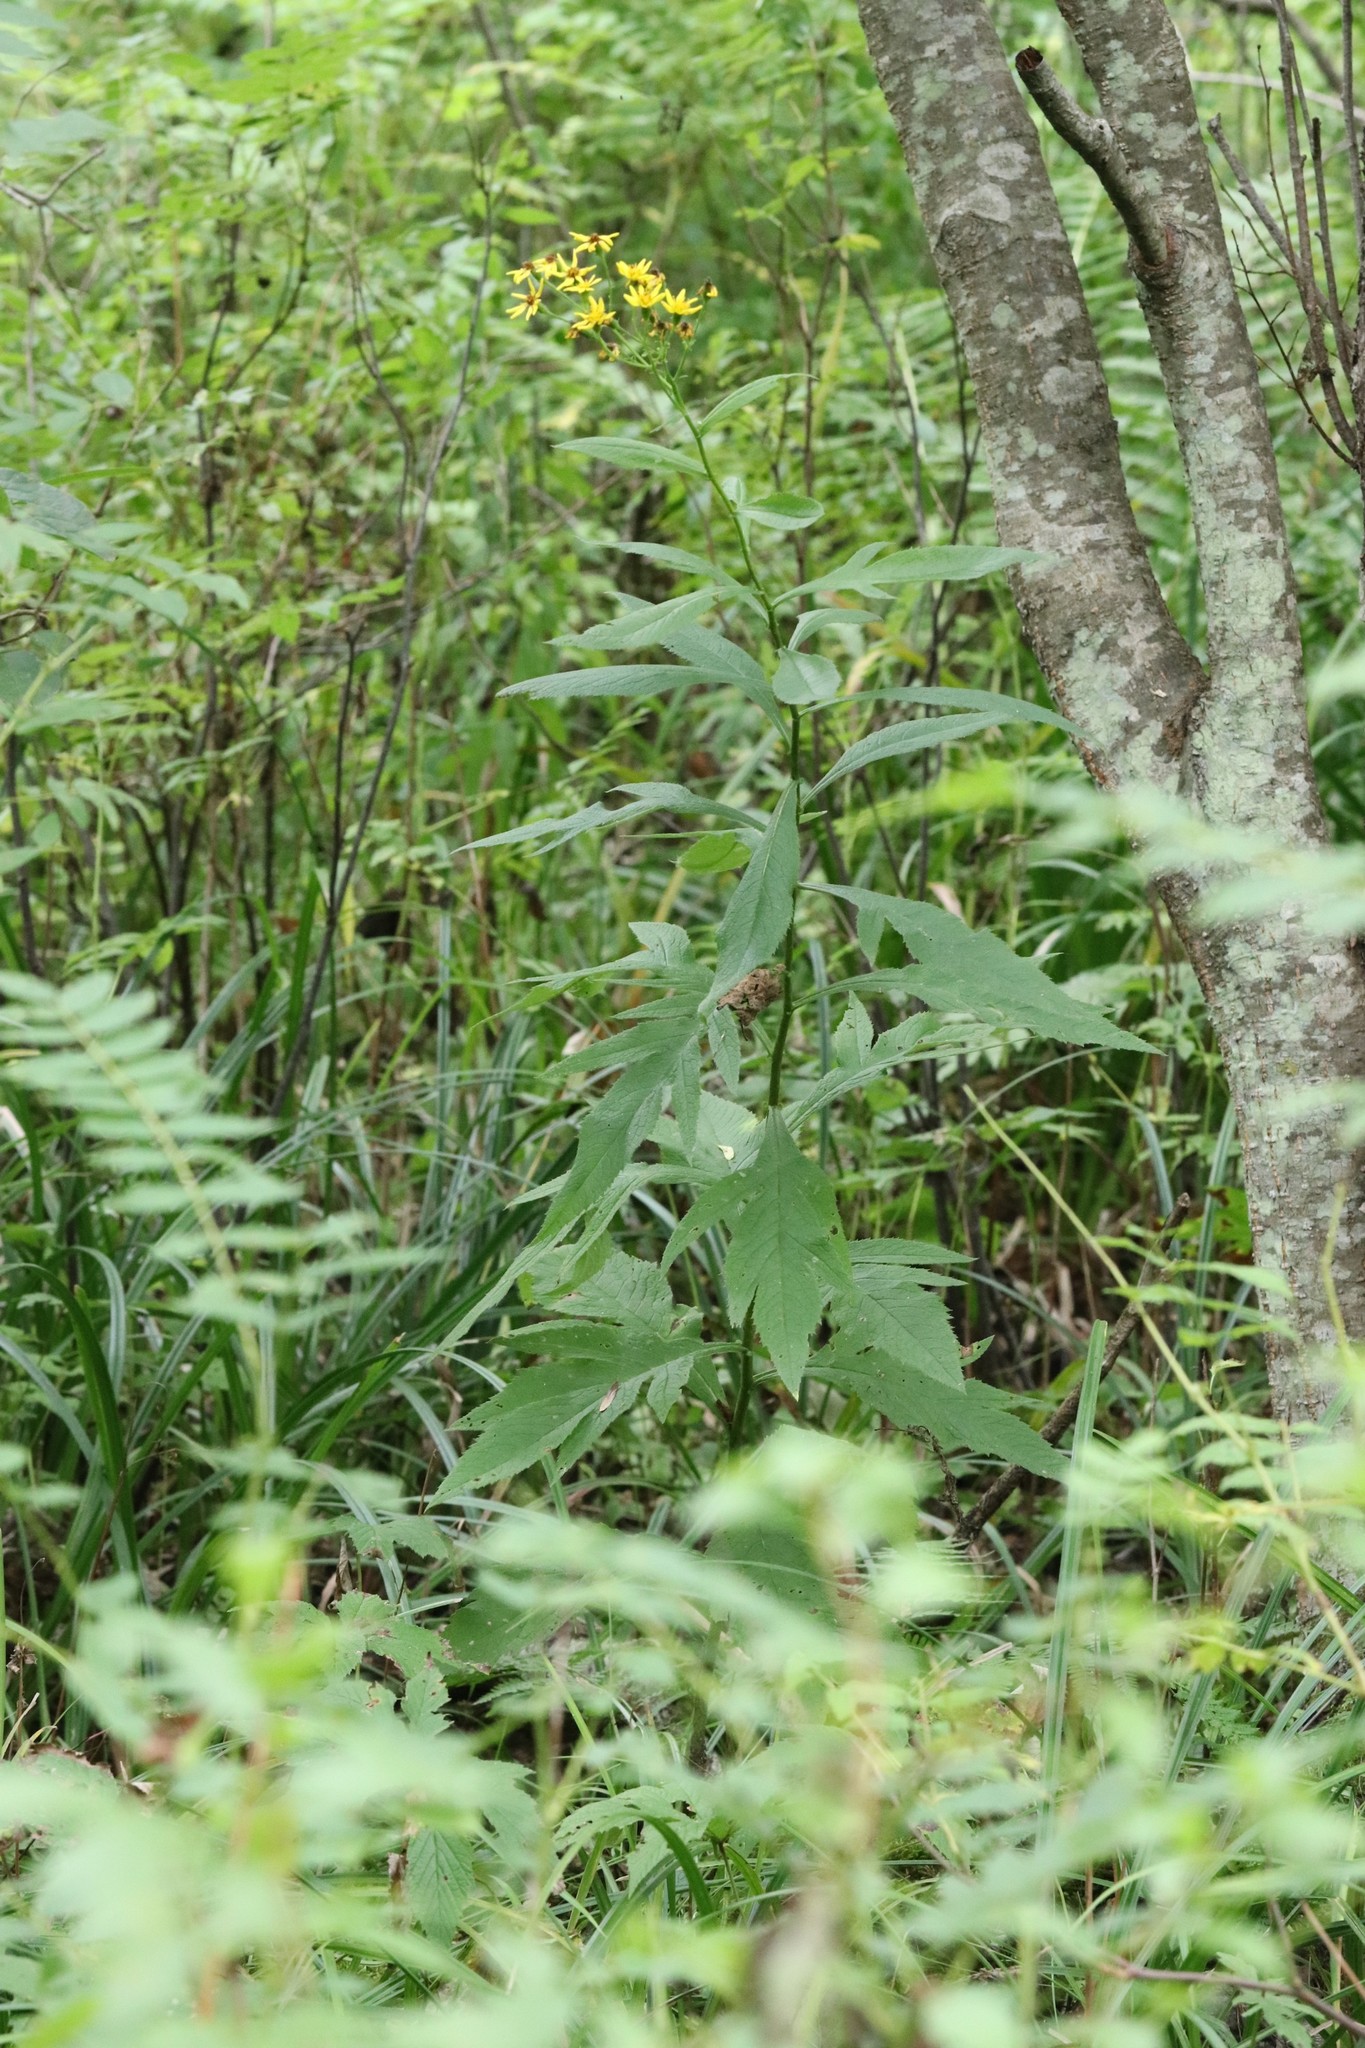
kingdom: Plantae
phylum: Tracheophyta
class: Magnoliopsida
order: Asterales
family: Asteraceae
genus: Jacobaea
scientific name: Jacobaea cannabifolia
